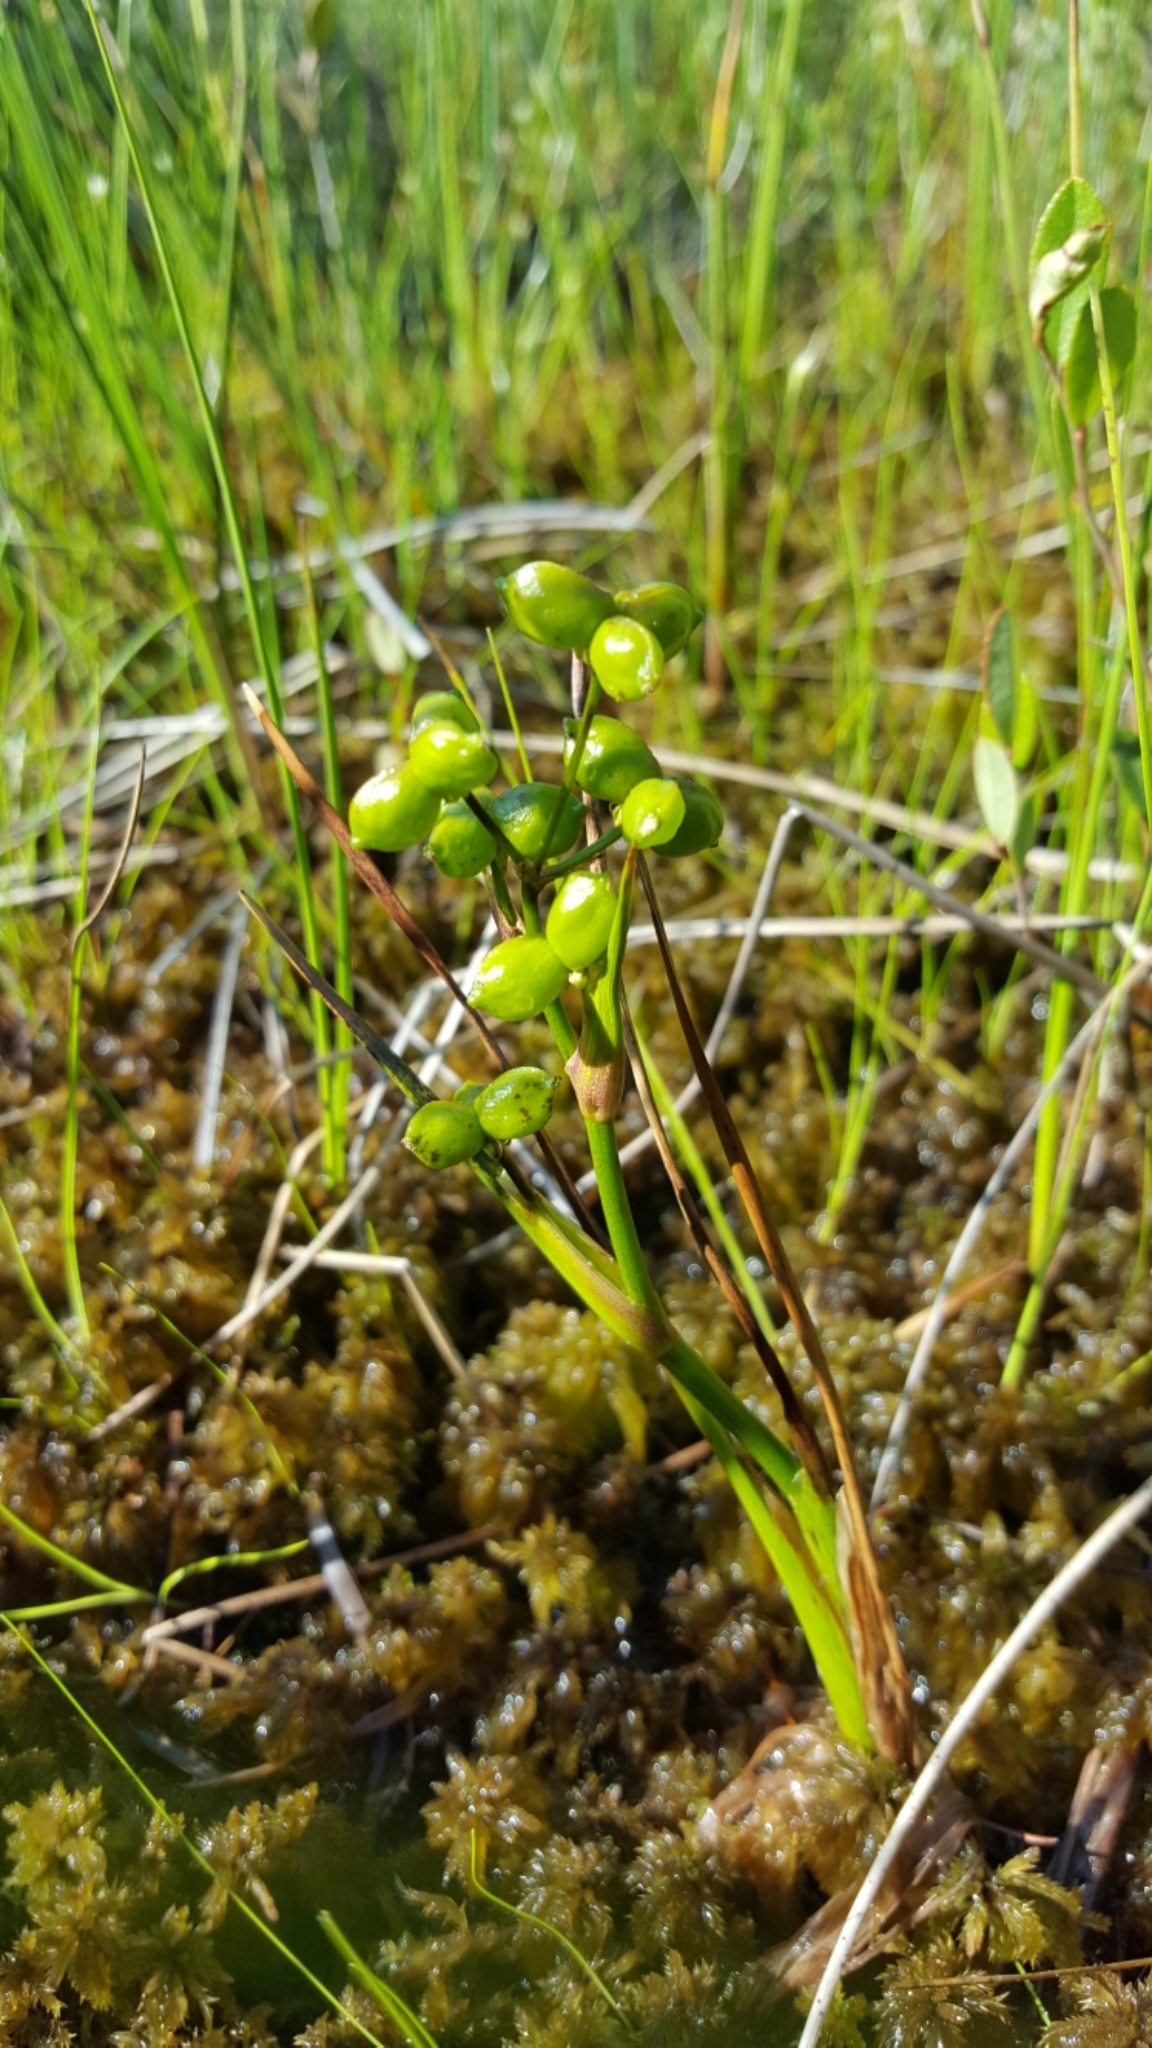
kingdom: Plantae
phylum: Tracheophyta
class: Liliopsida
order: Alismatales
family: Scheuchzeriaceae
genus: Scheuchzeria
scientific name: Scheuchzeria palustris
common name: Rannoch-rush
